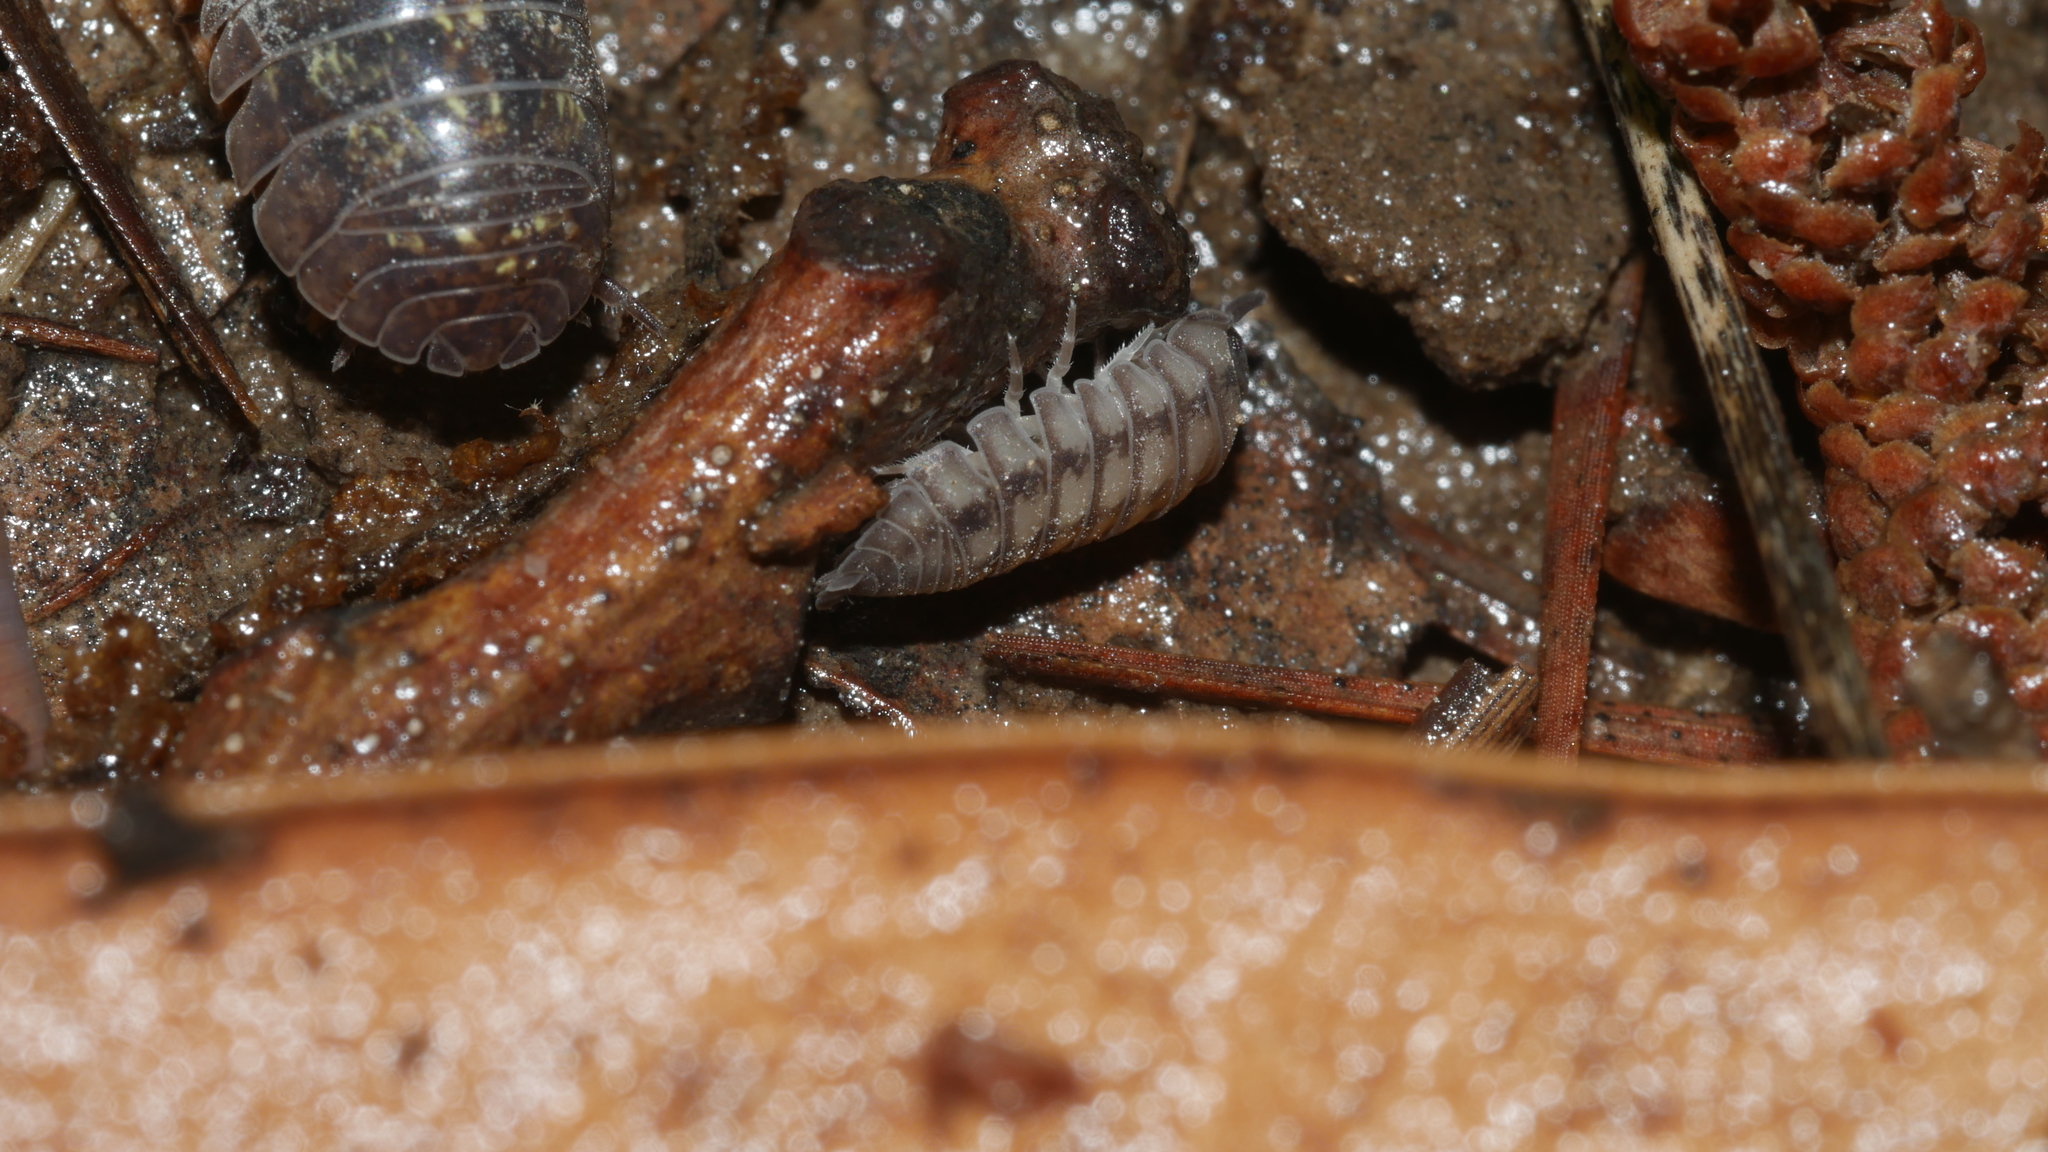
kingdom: Animalia
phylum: Arthropoda
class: Malacostraca
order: Isopoda
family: Armadillidiidae
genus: Armadillidium
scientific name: Armadillidium nasatum
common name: Isopod
